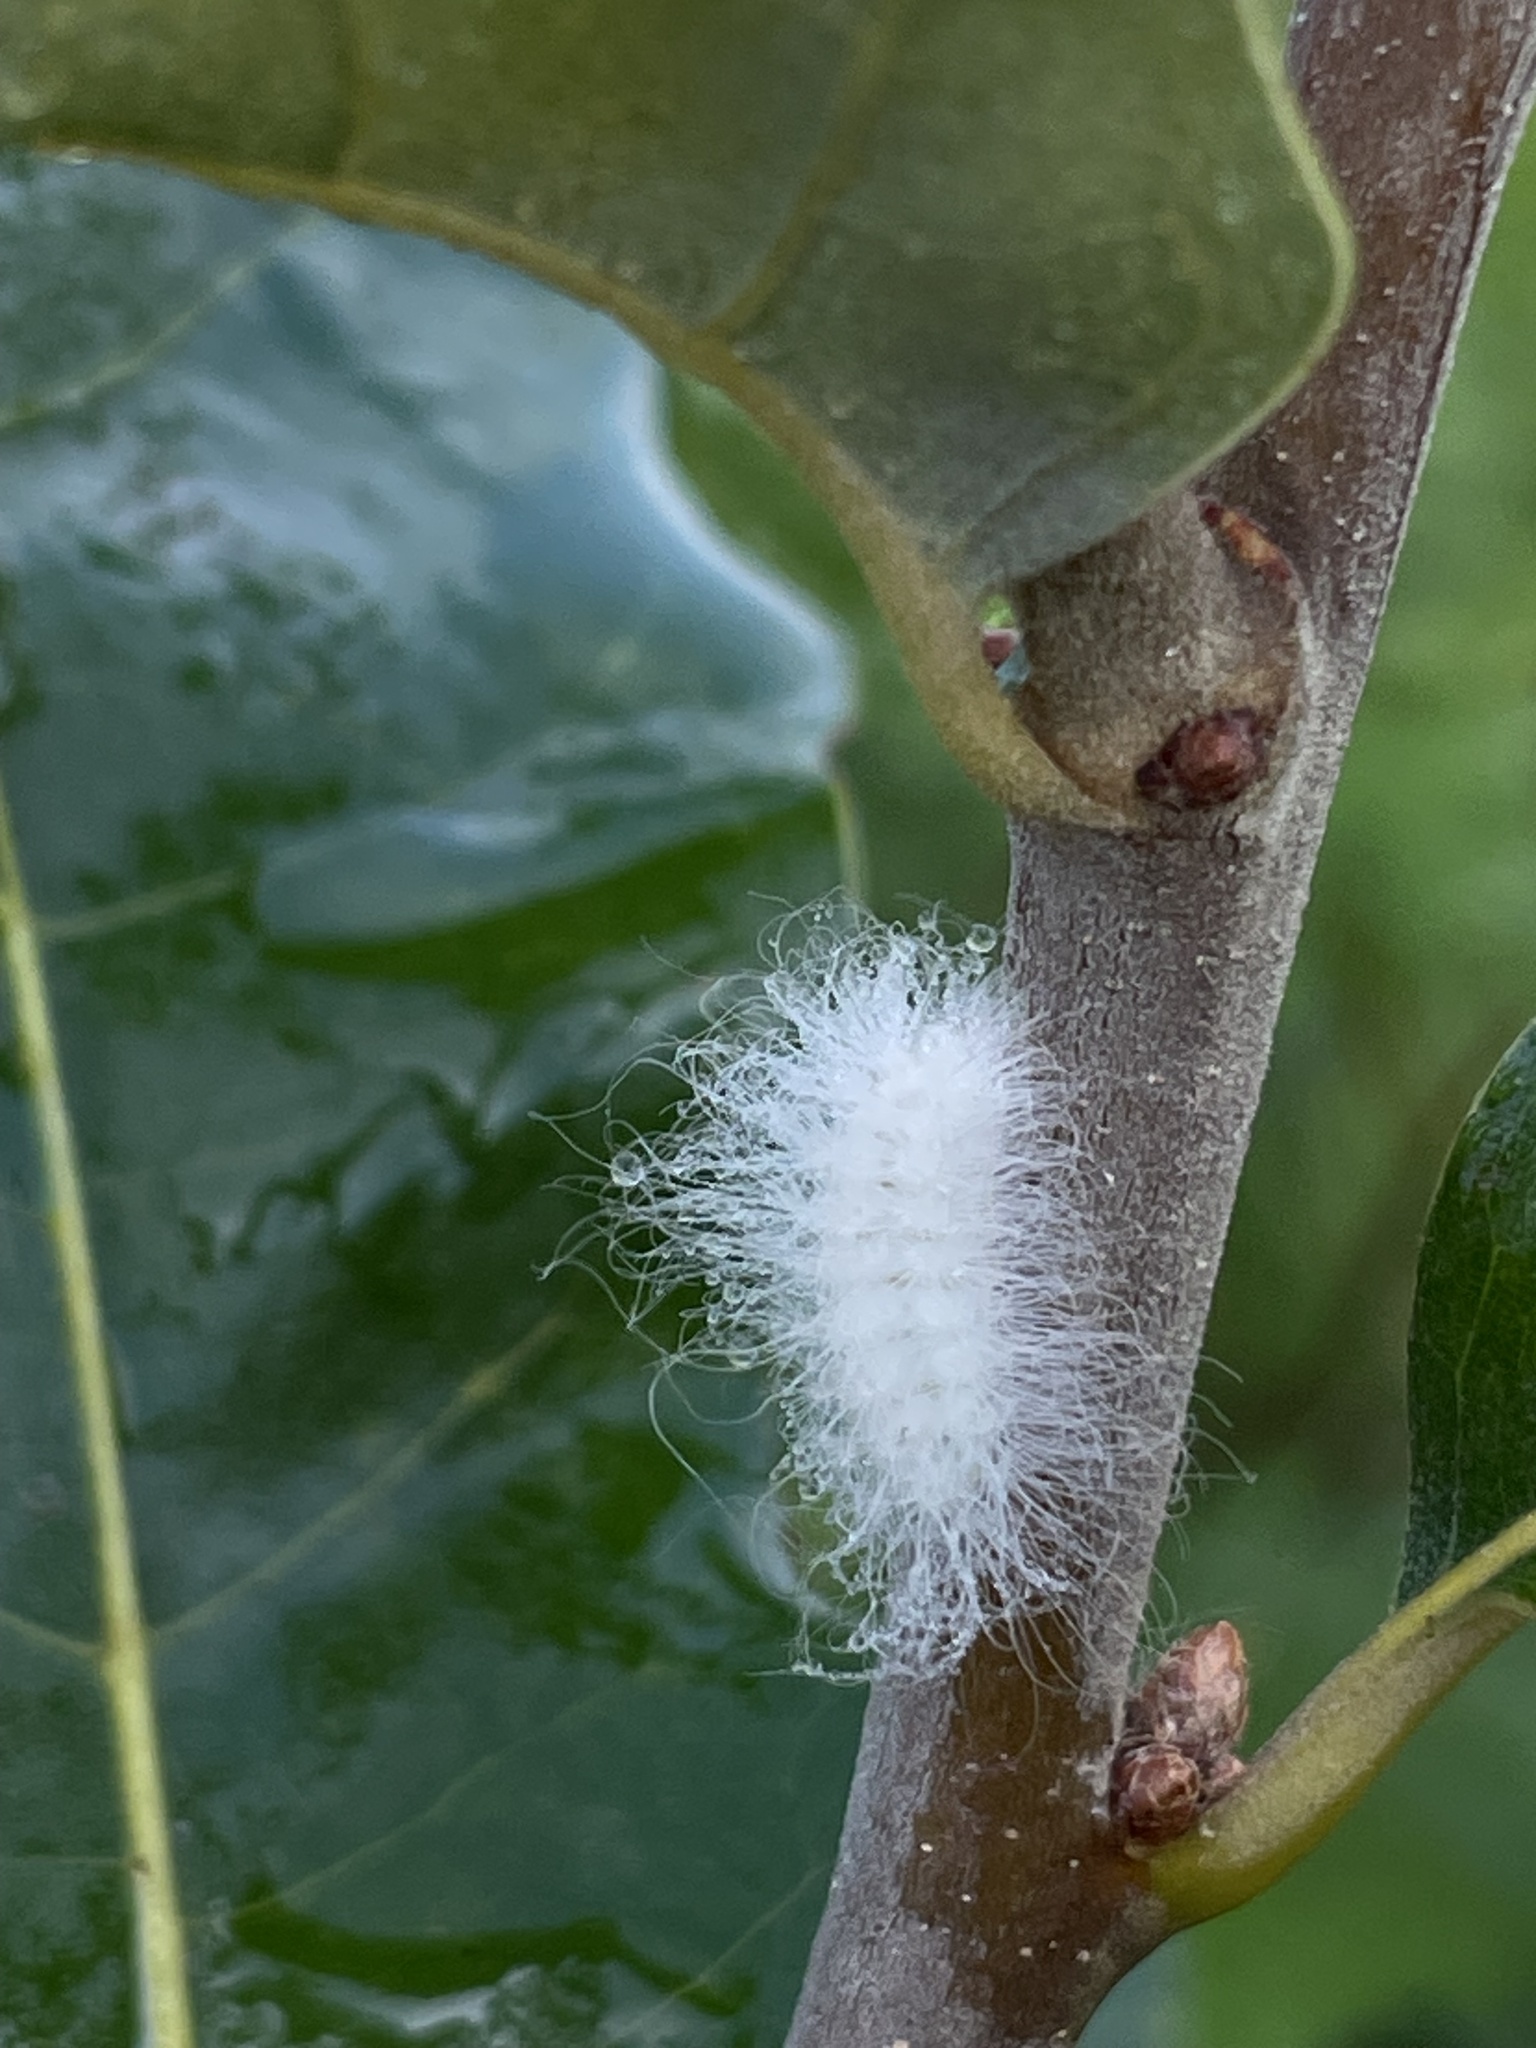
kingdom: Animalia
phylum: Arthropoda
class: Insecta
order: Lepidoptera
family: Megalopygidae
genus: Megalopyge
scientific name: Megalopyge crispata
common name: Black-waved flannel moth
